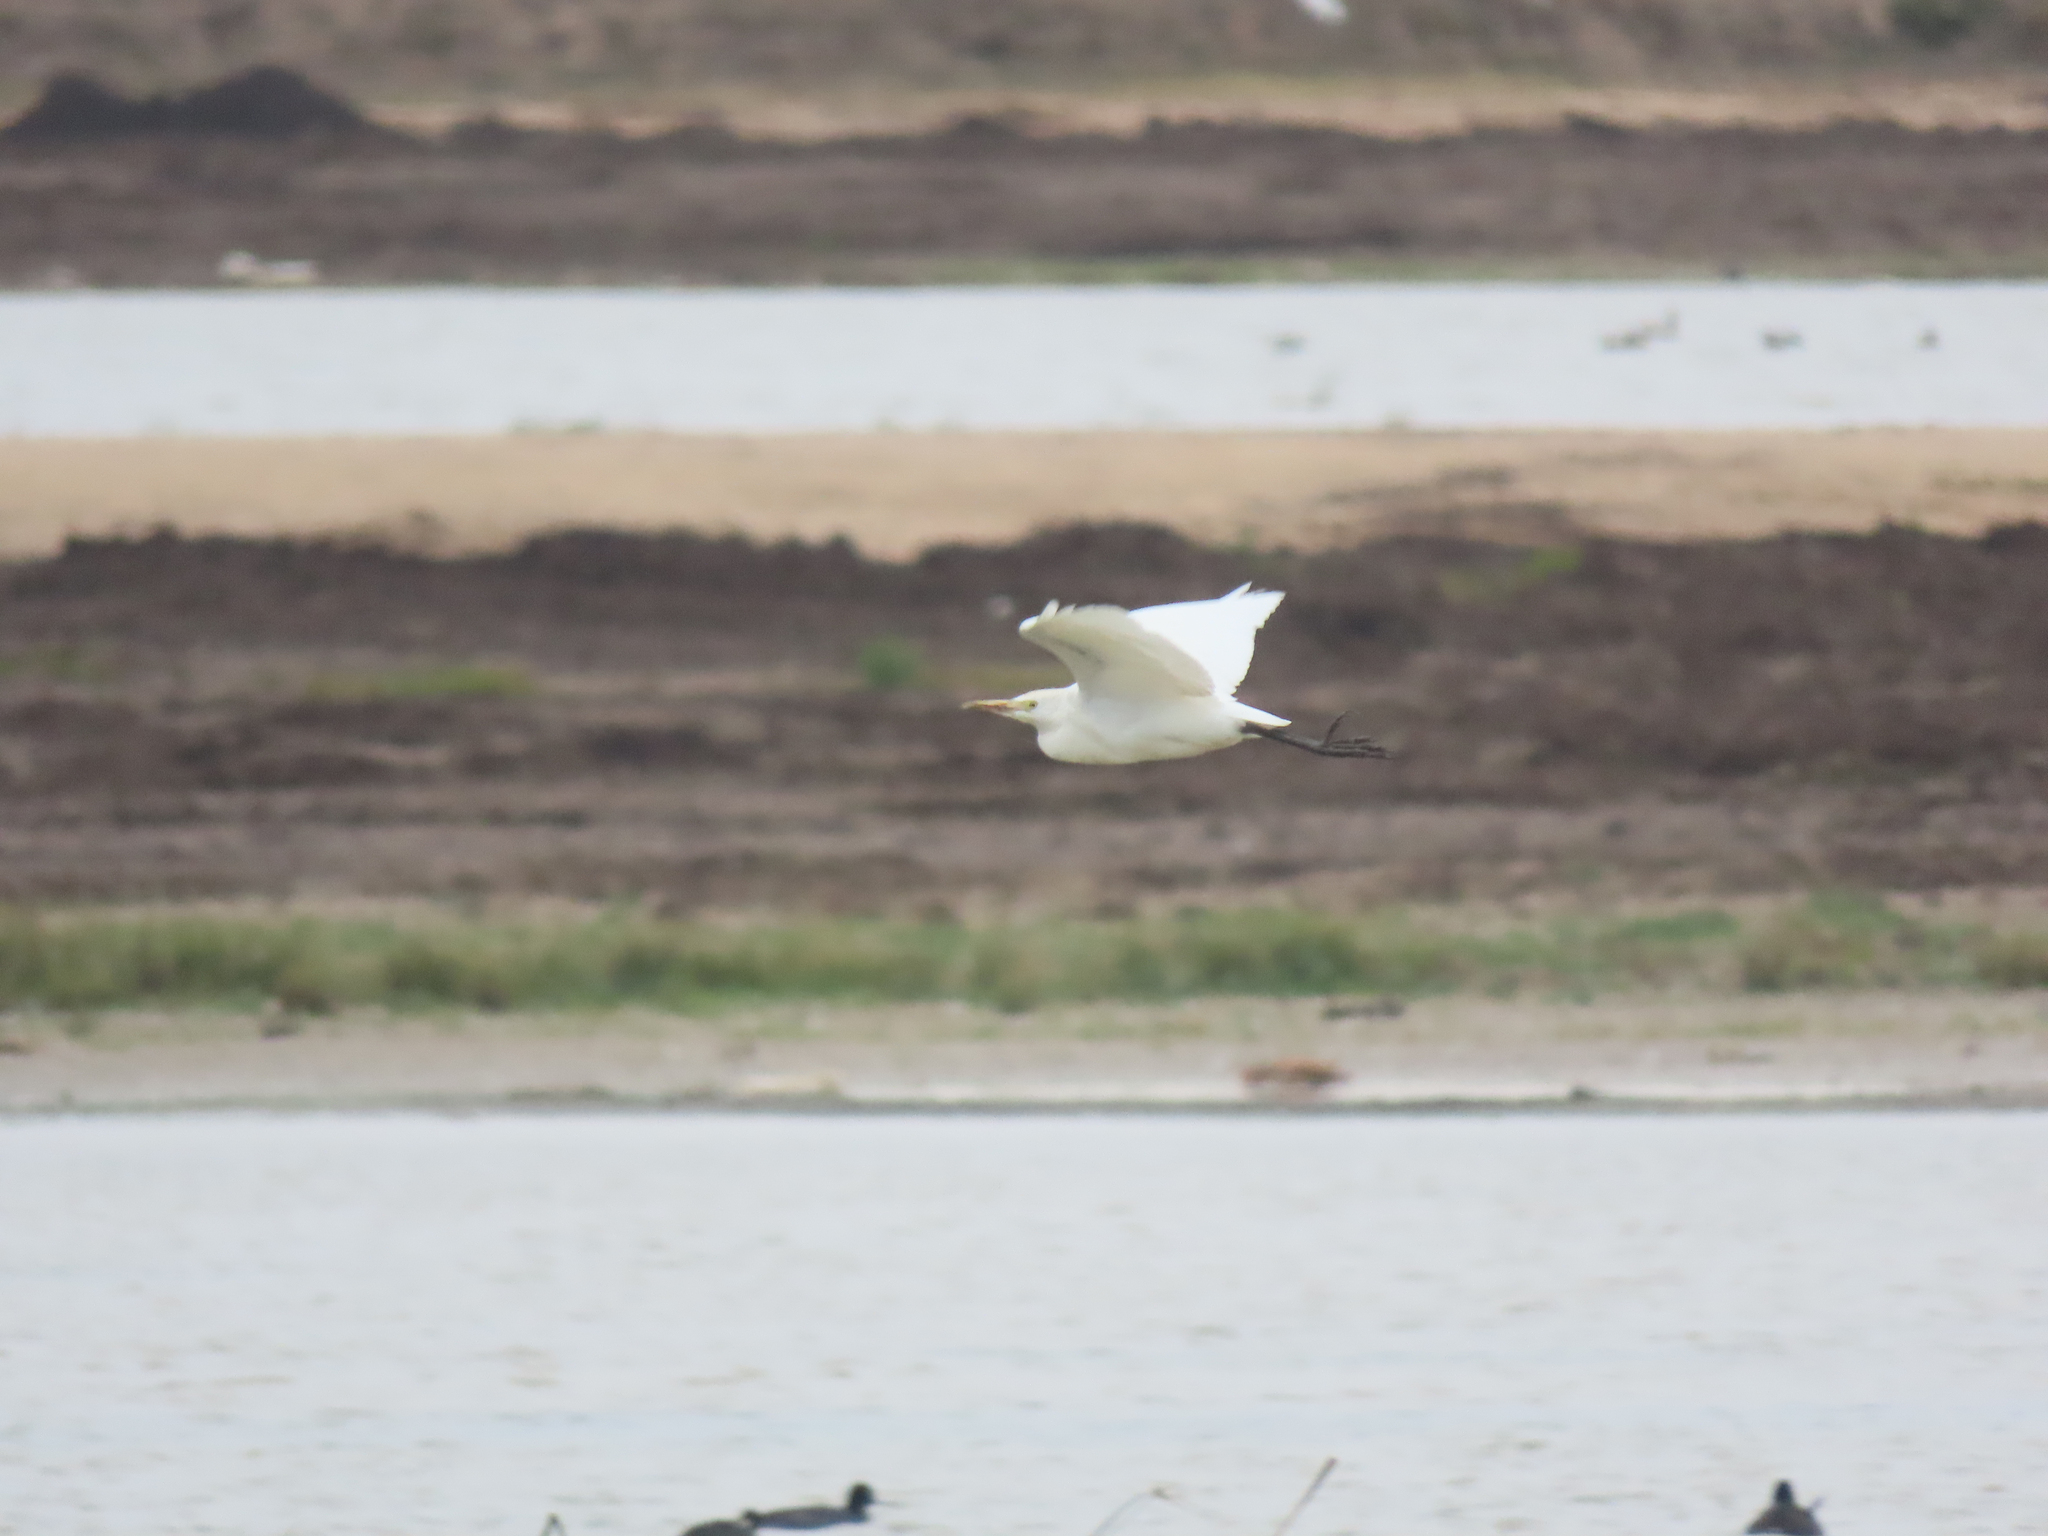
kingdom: Animalia
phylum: Chordata
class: Aves
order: Pelecaniformes
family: Ardeidae
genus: Bubulcus
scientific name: Bubulcus ibis
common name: Cattle egret
